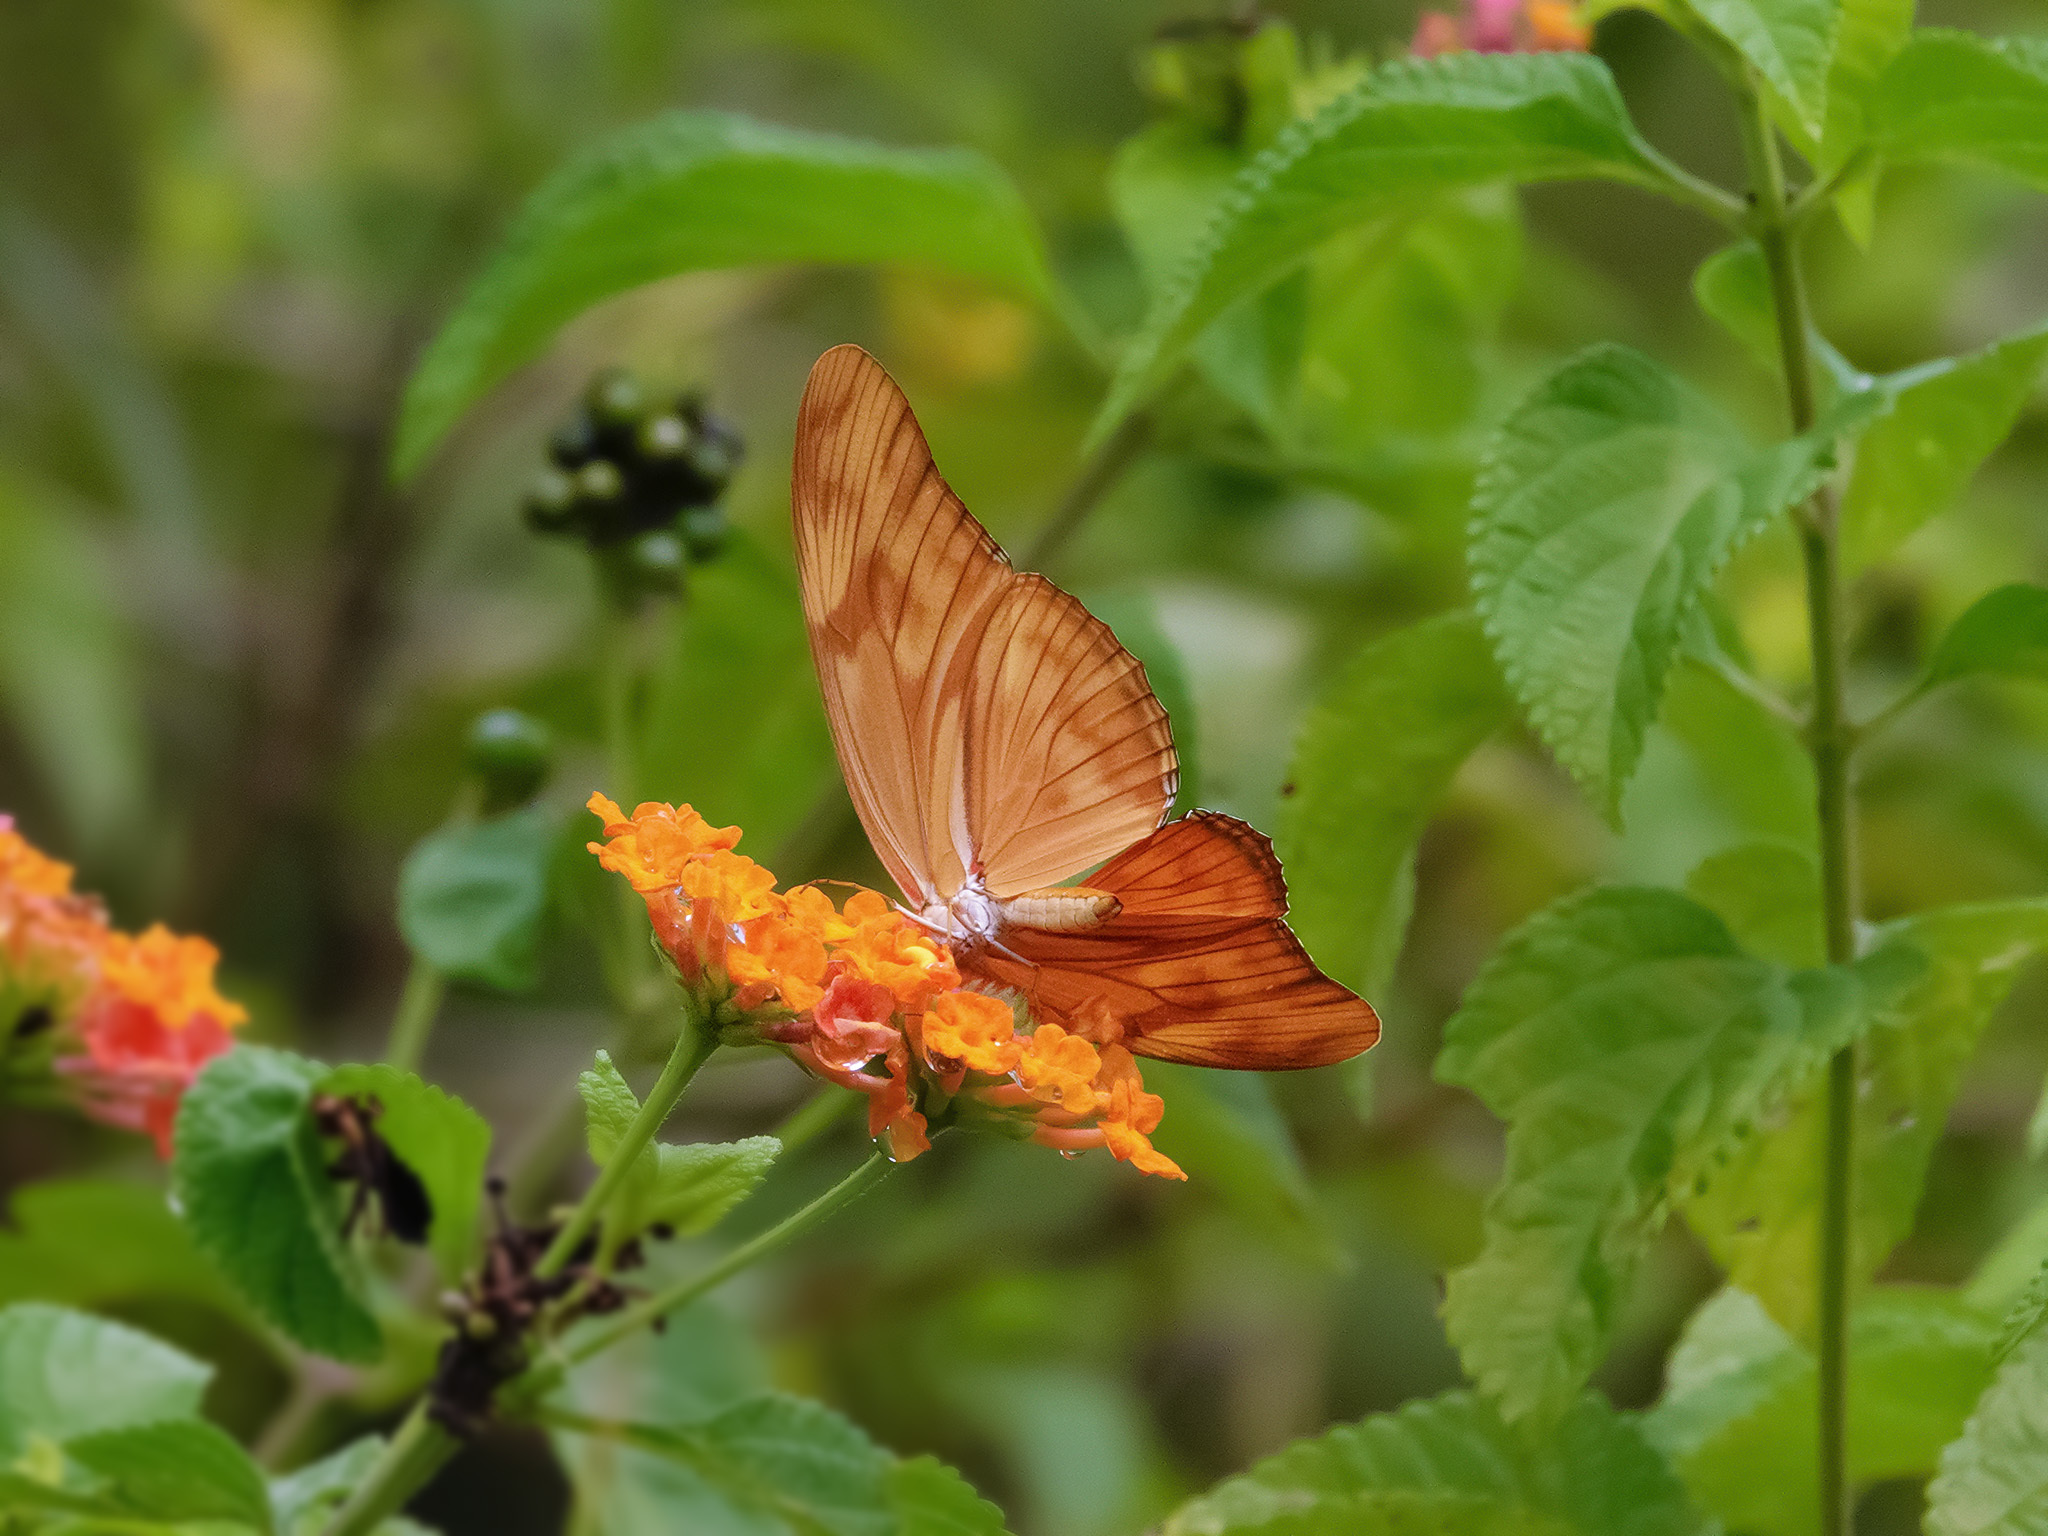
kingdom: Animalia
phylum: Arthropoda
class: Insecta
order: Lepidoptera
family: Nymphalidae
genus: Dryas
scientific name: Dryas iulia
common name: Flambeau
